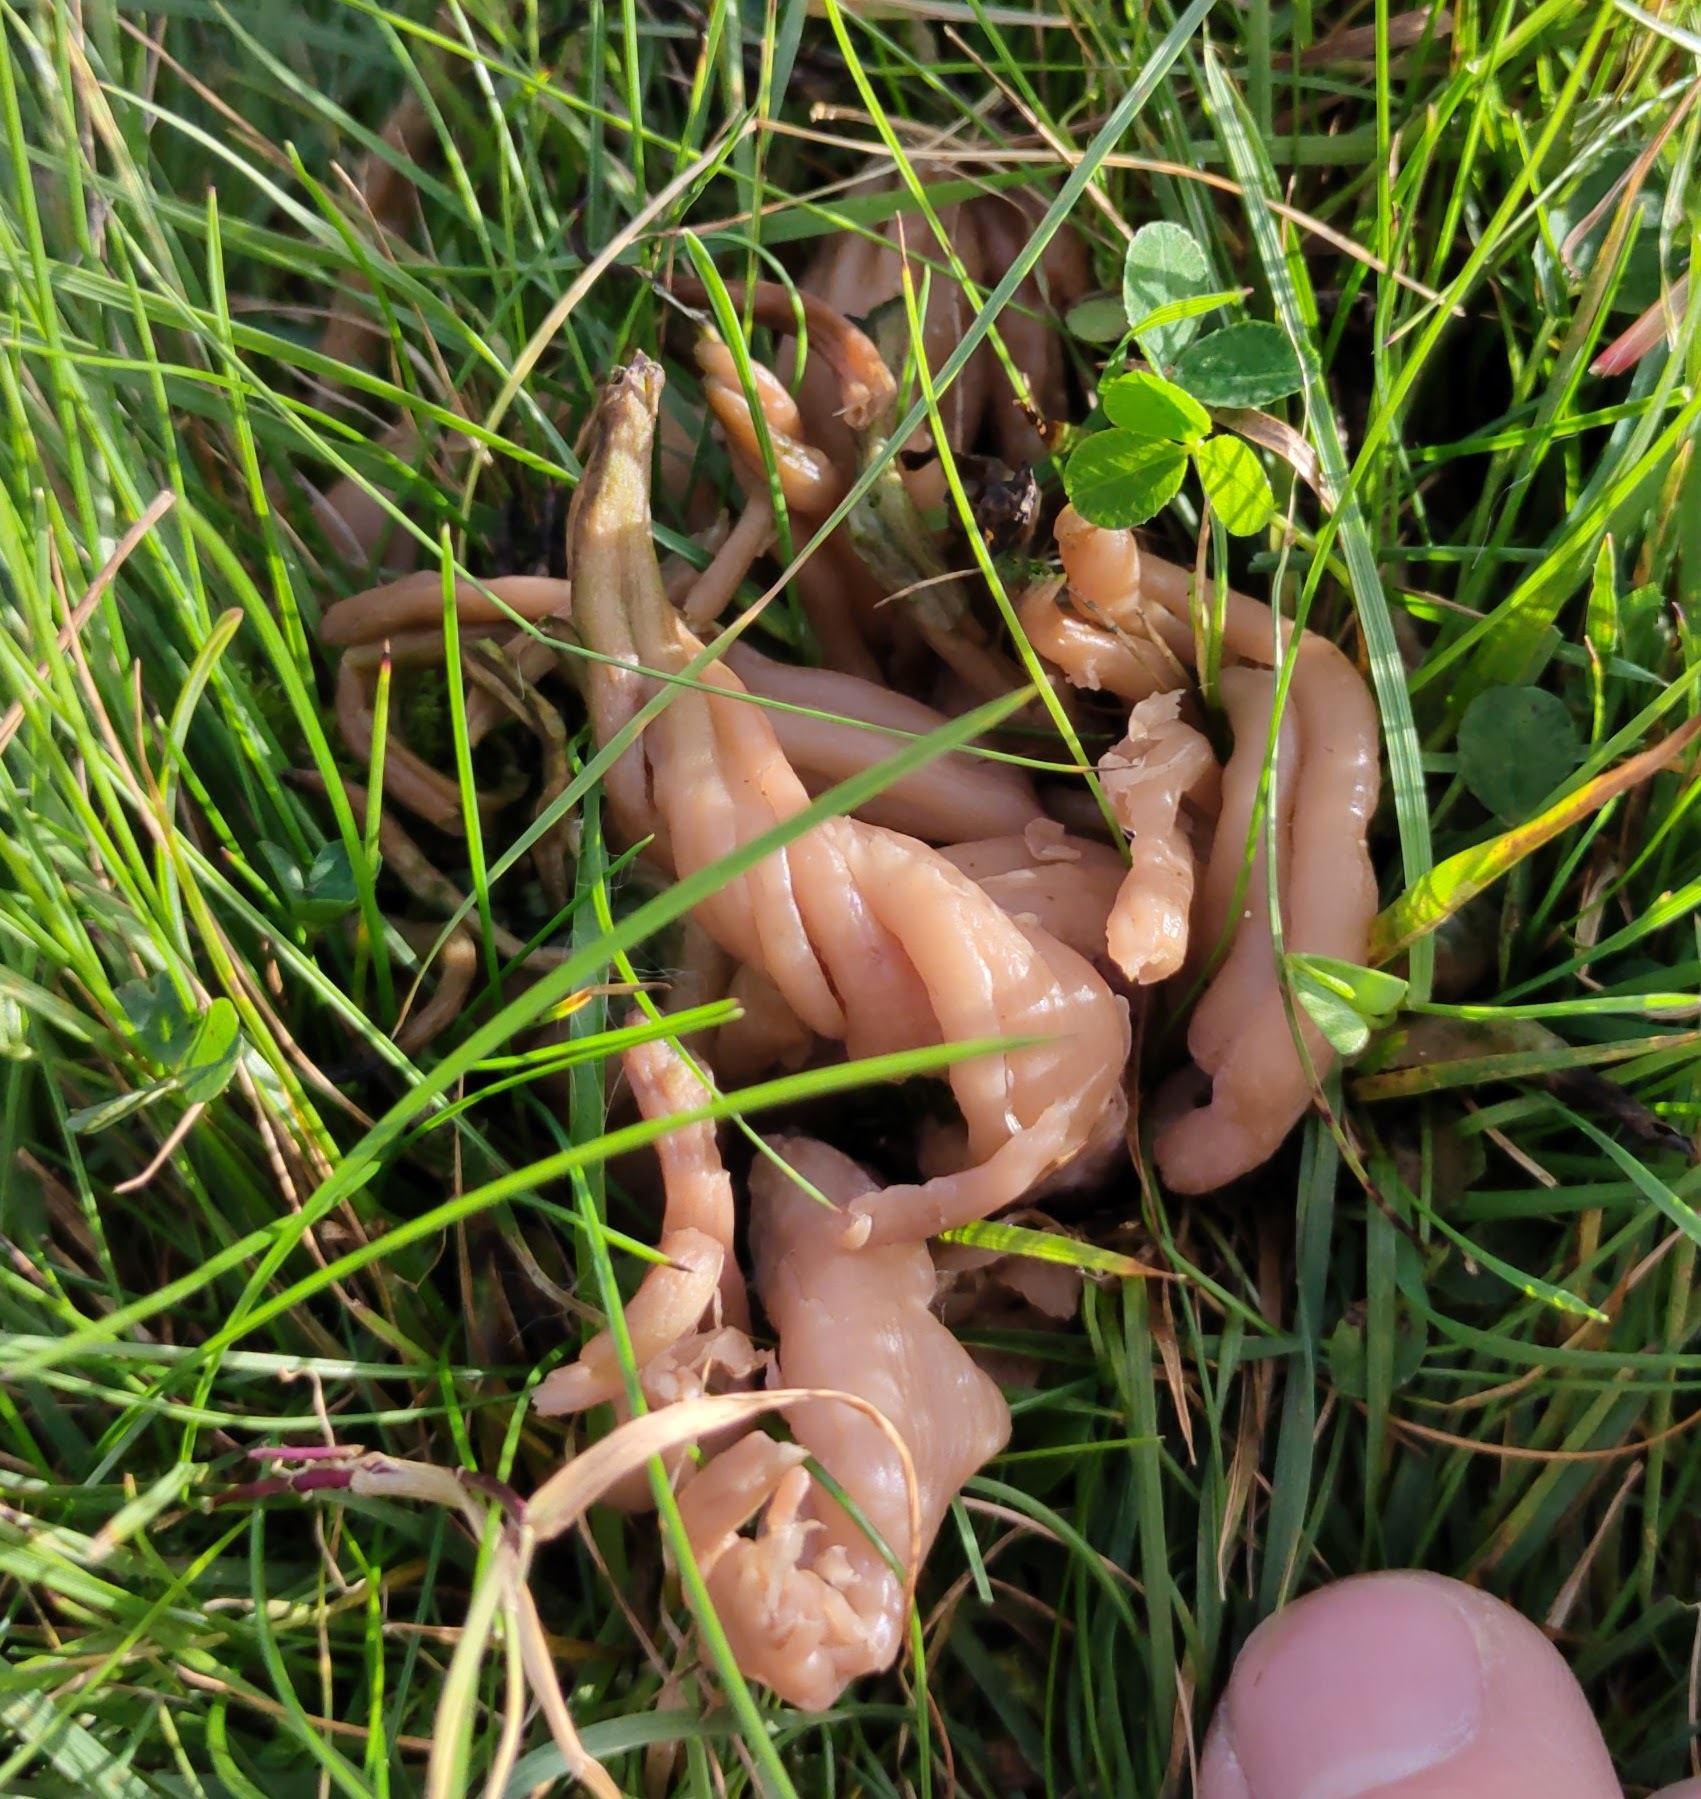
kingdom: Fungi
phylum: Basidiomycota
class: Agaricomycetes
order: Agaricales
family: Clavariaceae
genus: Clavaria
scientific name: Clavaria fumosa
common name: Smoky spindles
